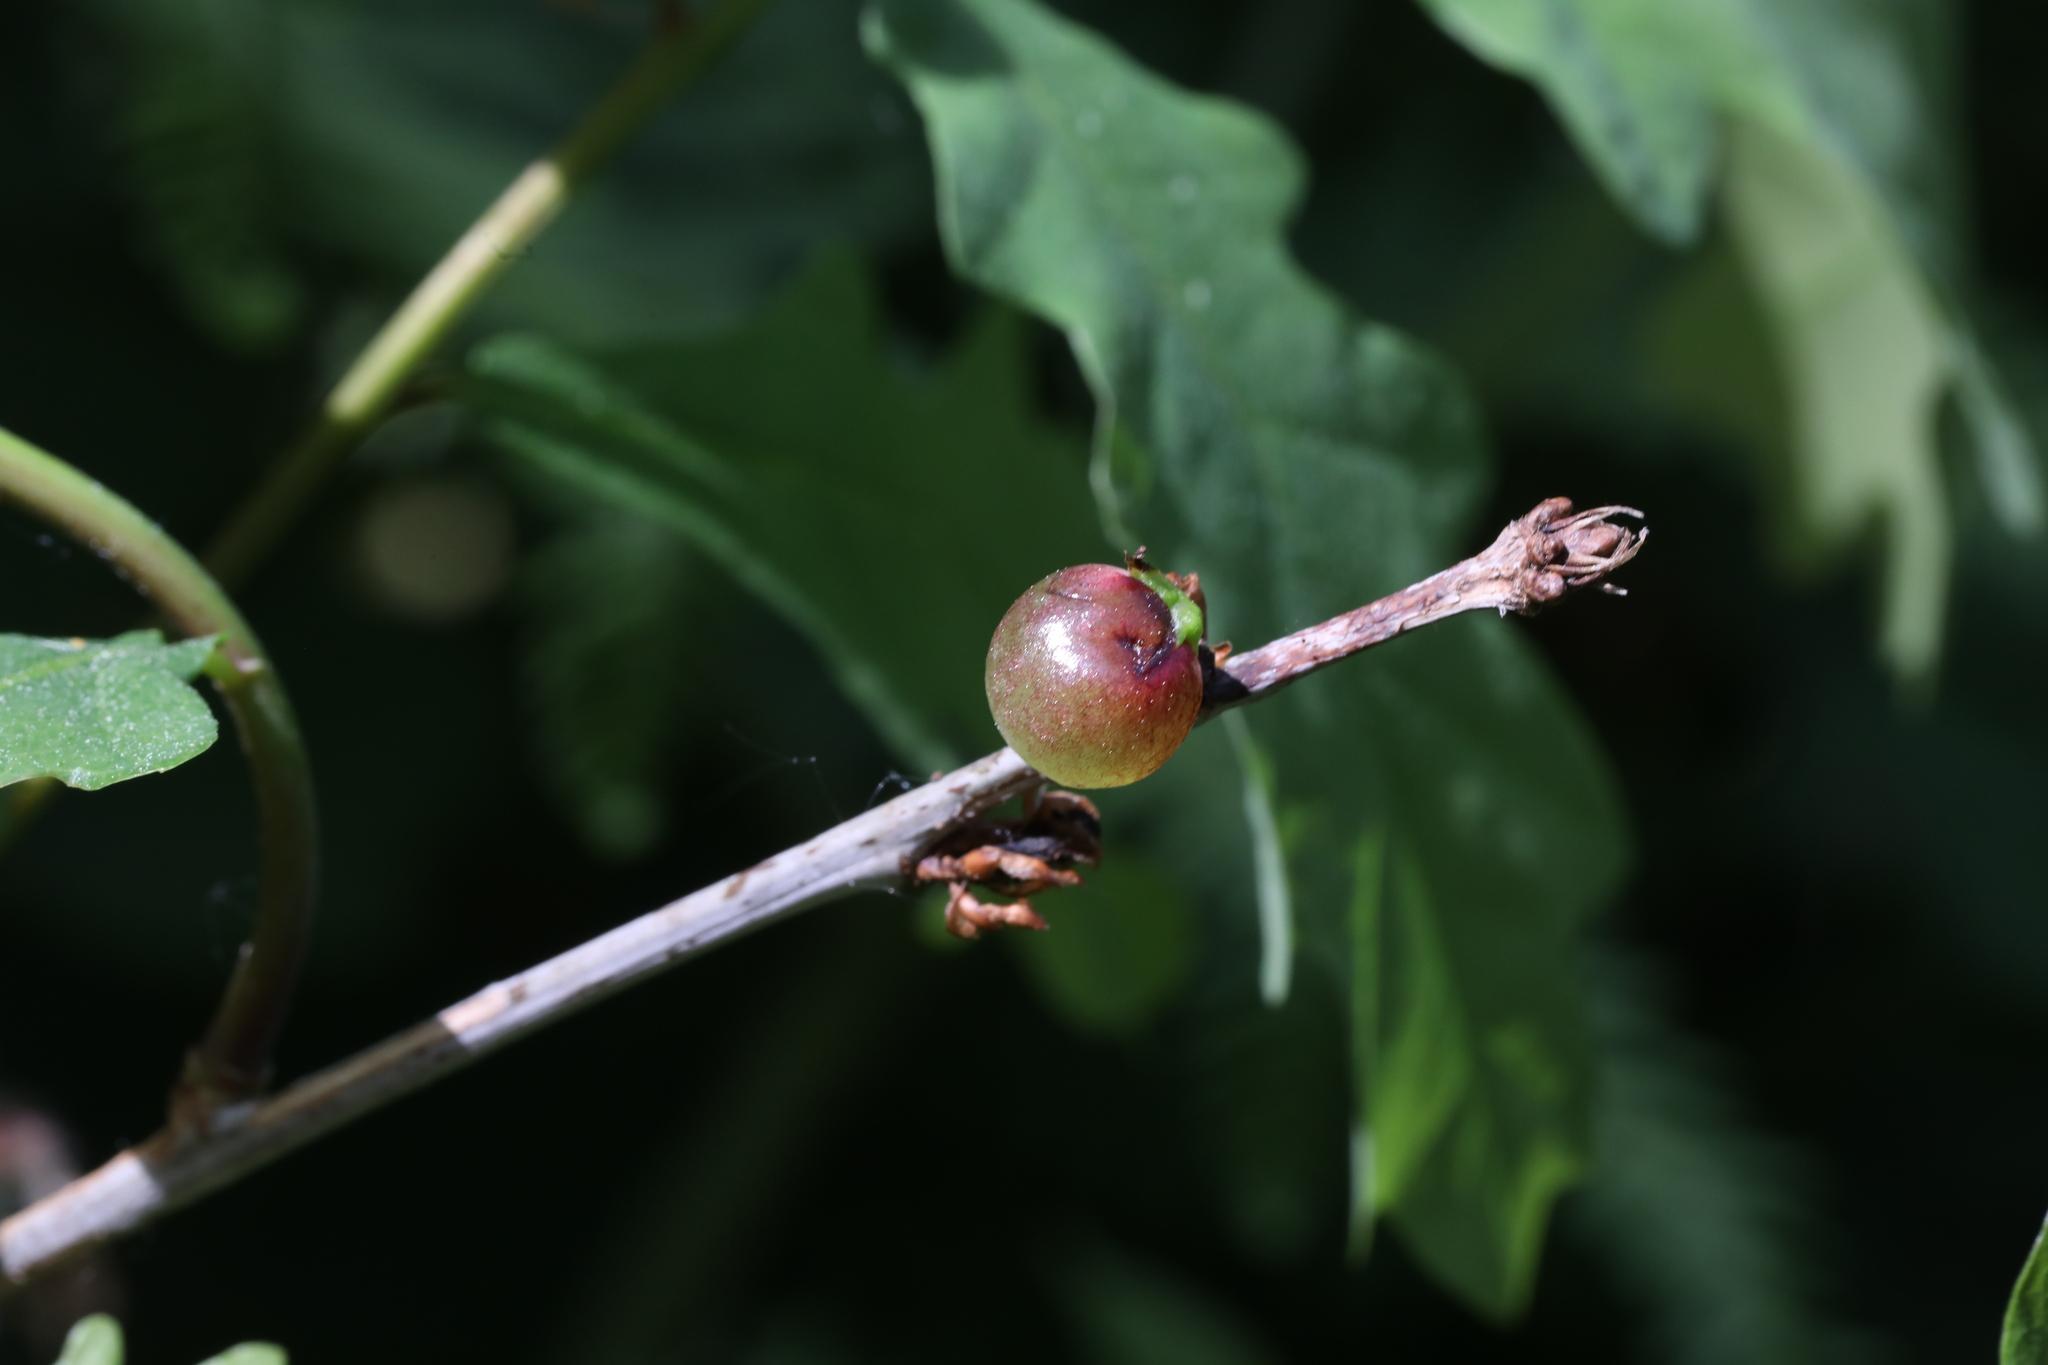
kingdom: Animalia
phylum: Arthropoda
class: Insecta
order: Hymenoptera
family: Cynipidae
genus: Neuroterus
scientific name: Neuroterus quercusbaccarum
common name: Common spangle gall
